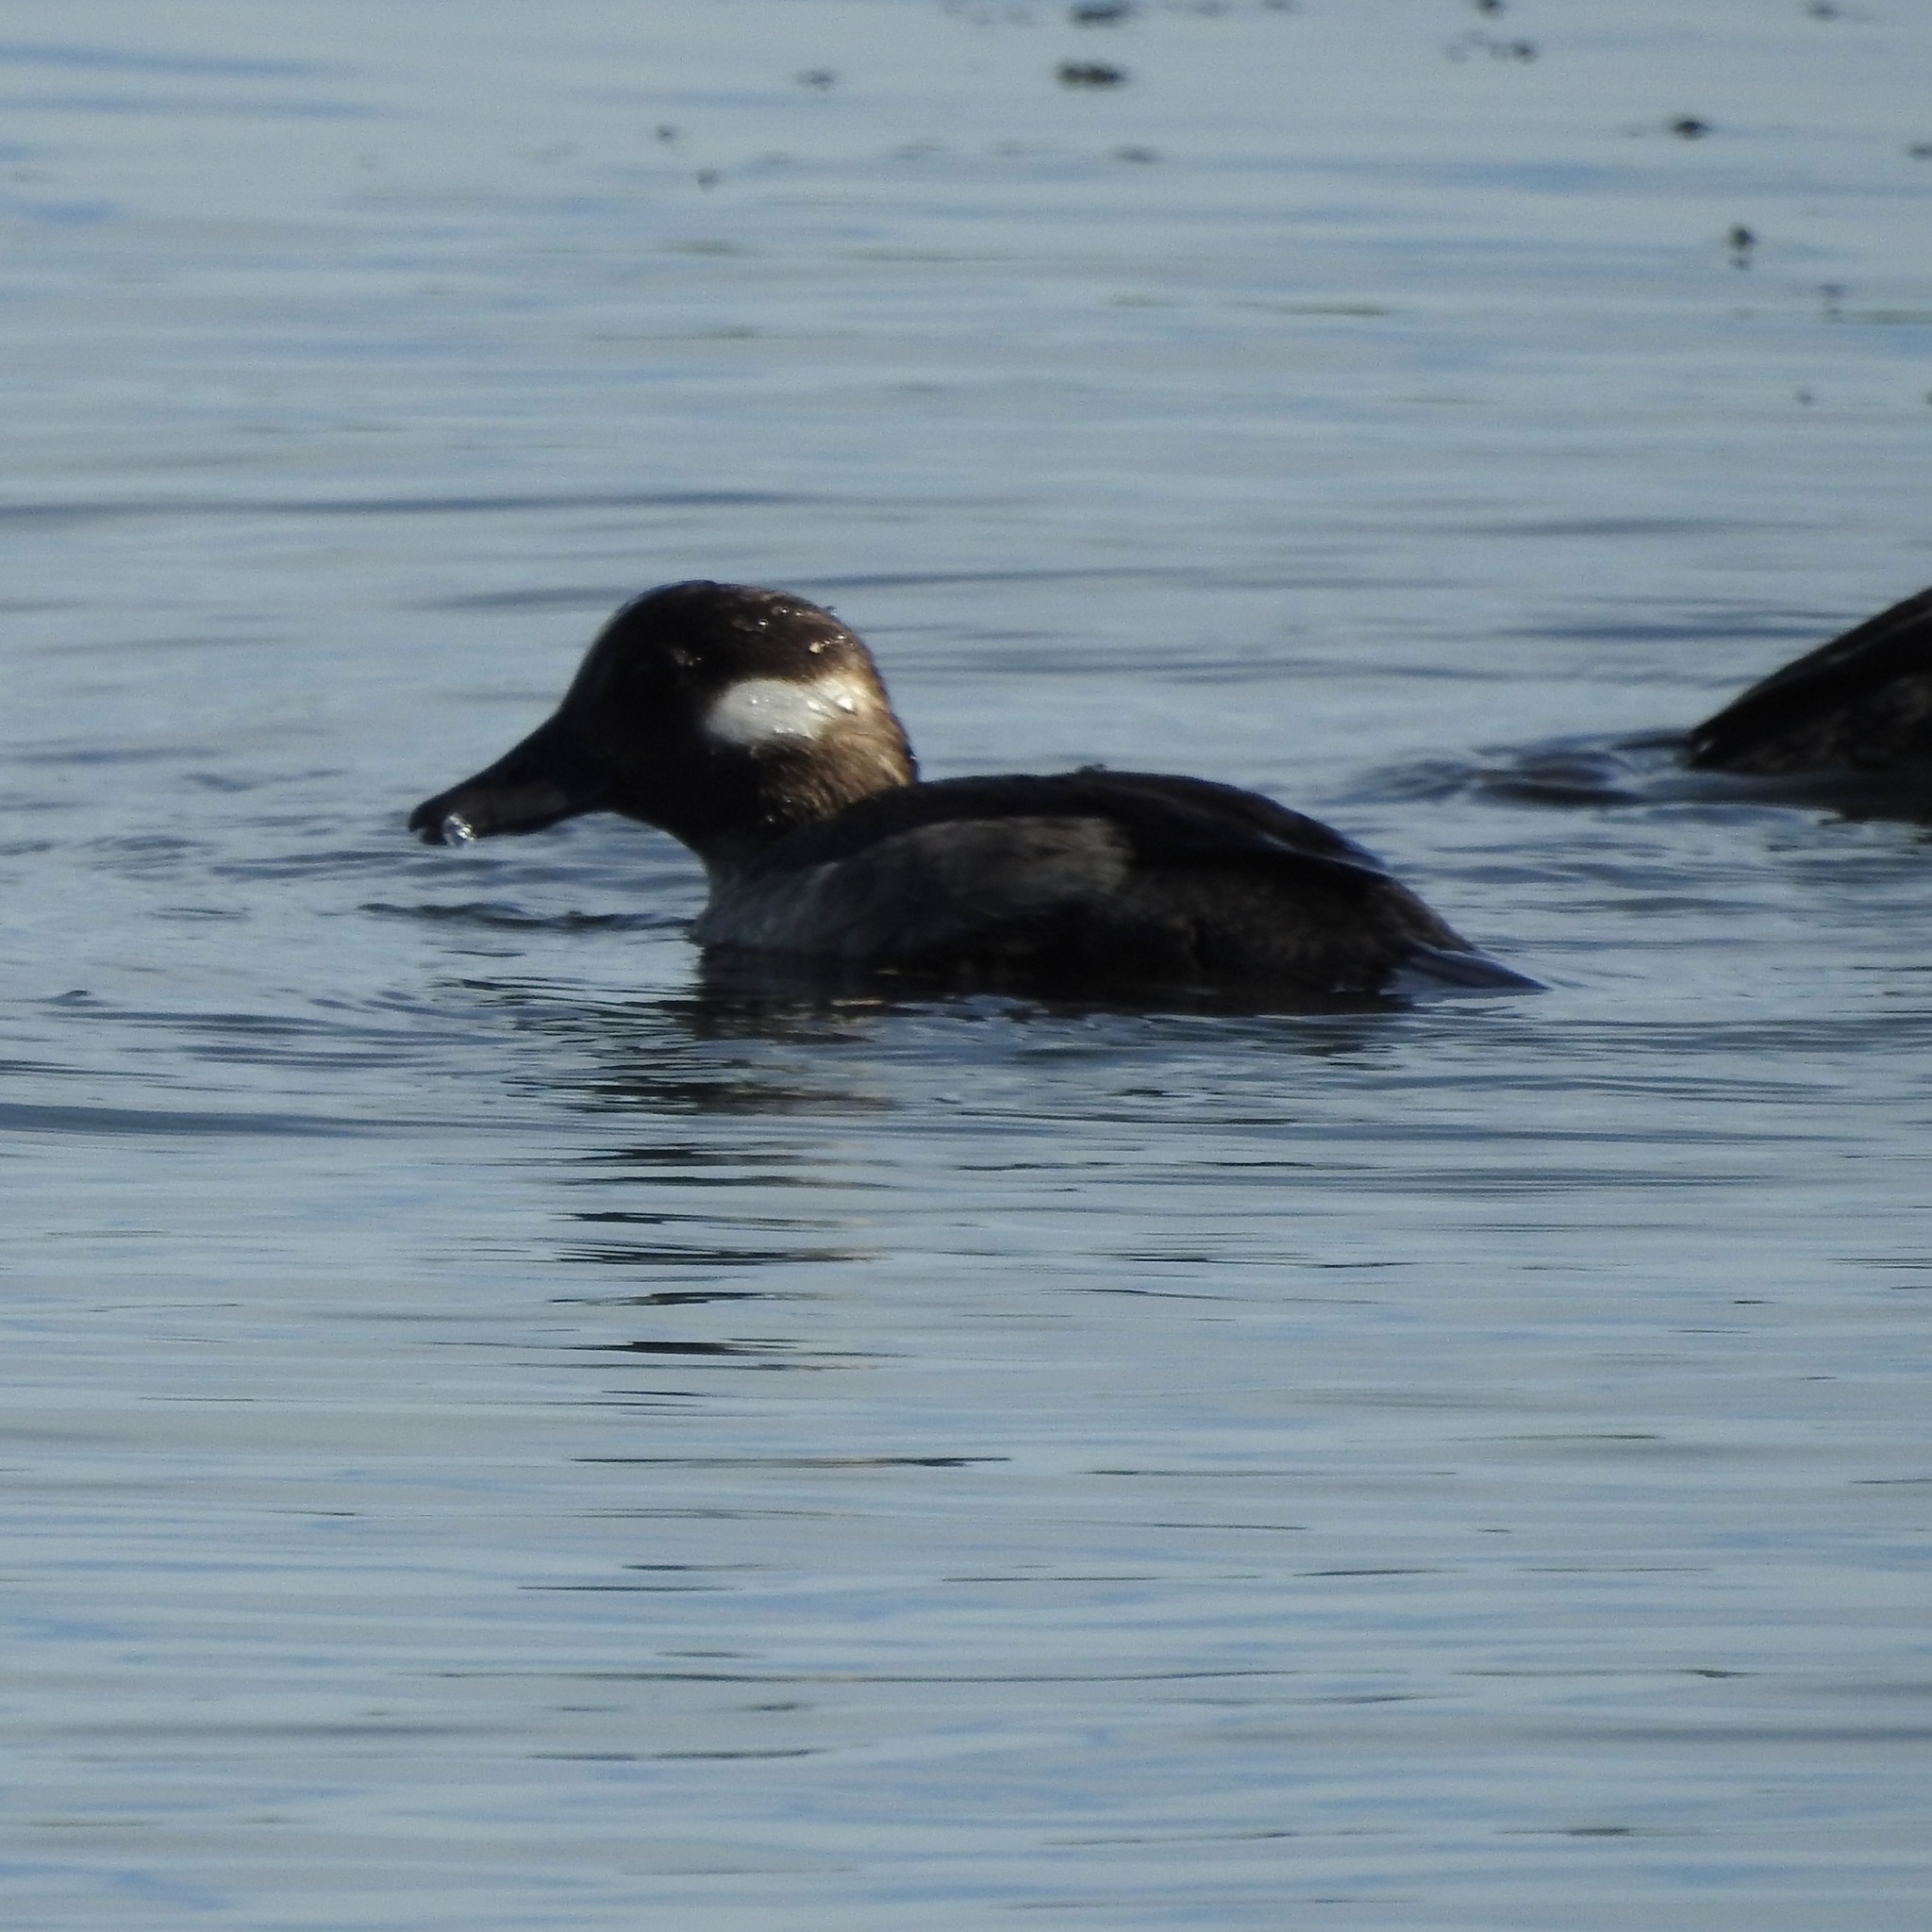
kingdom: Animalia
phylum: Chordata
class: Aves
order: Anseriformes
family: Anatidae
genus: Bucephala
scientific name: Bucephala albeola
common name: Bufflehead
